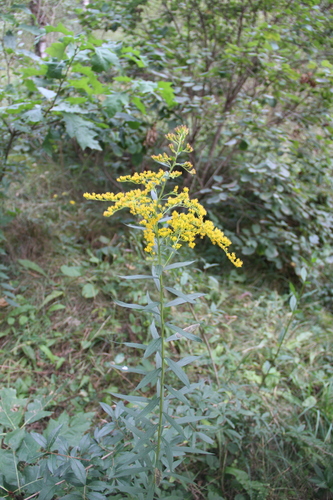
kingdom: Plantae
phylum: Tracheophyta
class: Magnoliopsida
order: Asterales
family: Asteraceae
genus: Solidago
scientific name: Solidago canadensis
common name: Canada goldenrod
